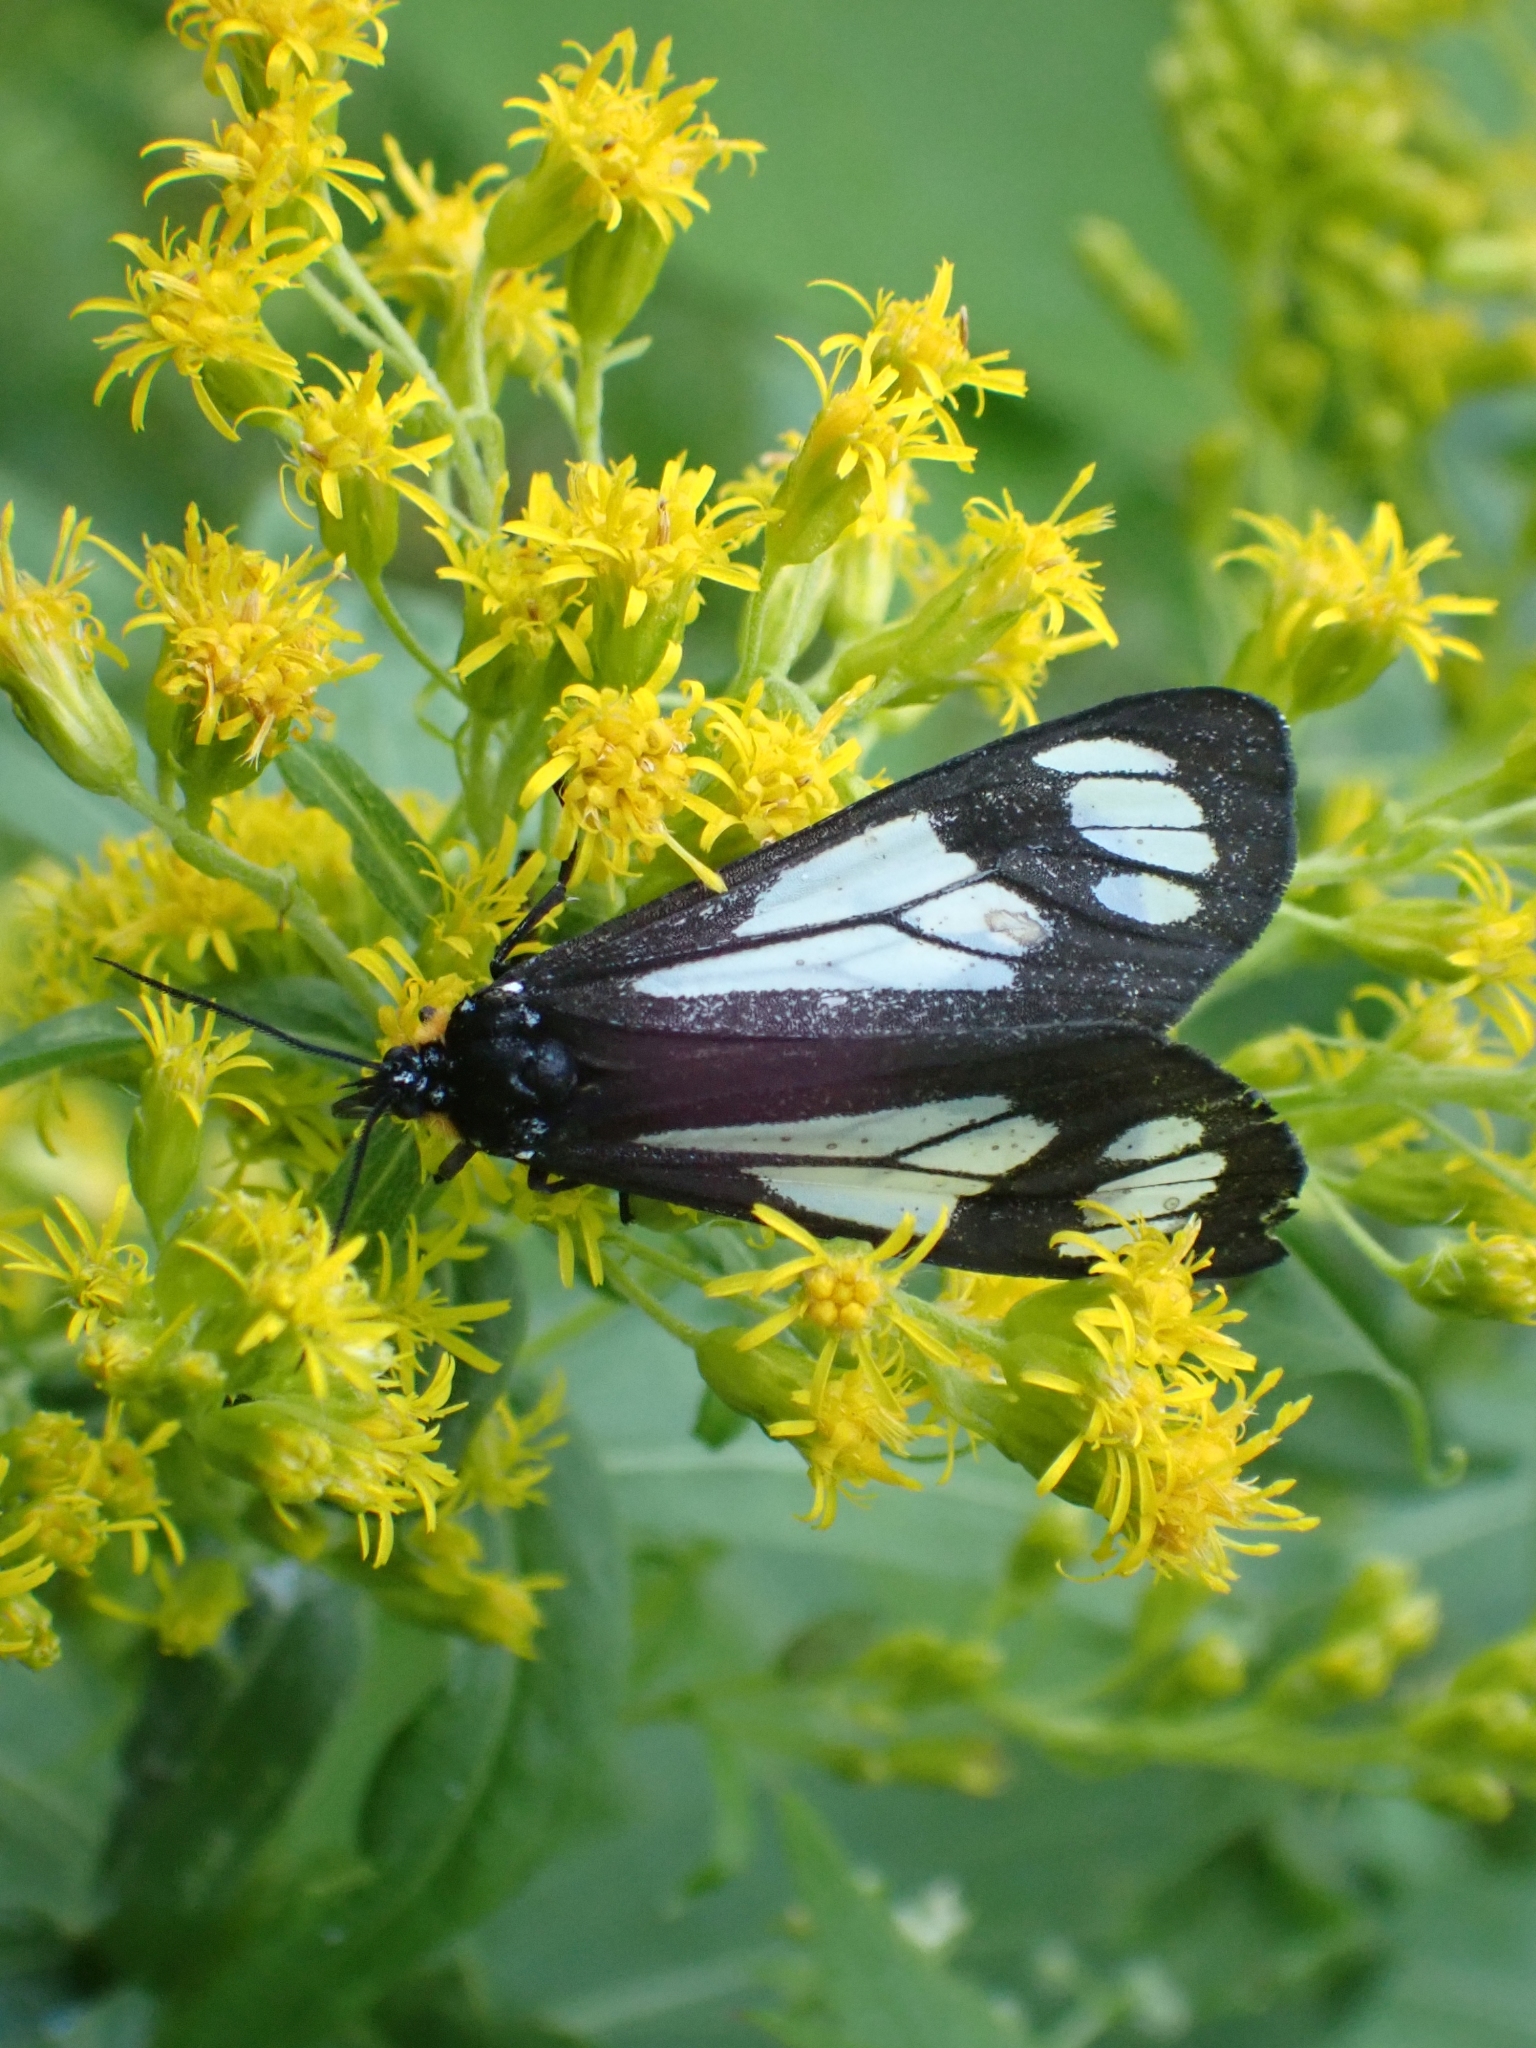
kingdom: Animalia
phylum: Arthropoda
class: Insecta
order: Lepidoptera
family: Erebidae
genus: Gnophaela
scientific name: Gnophaela vermiculata
